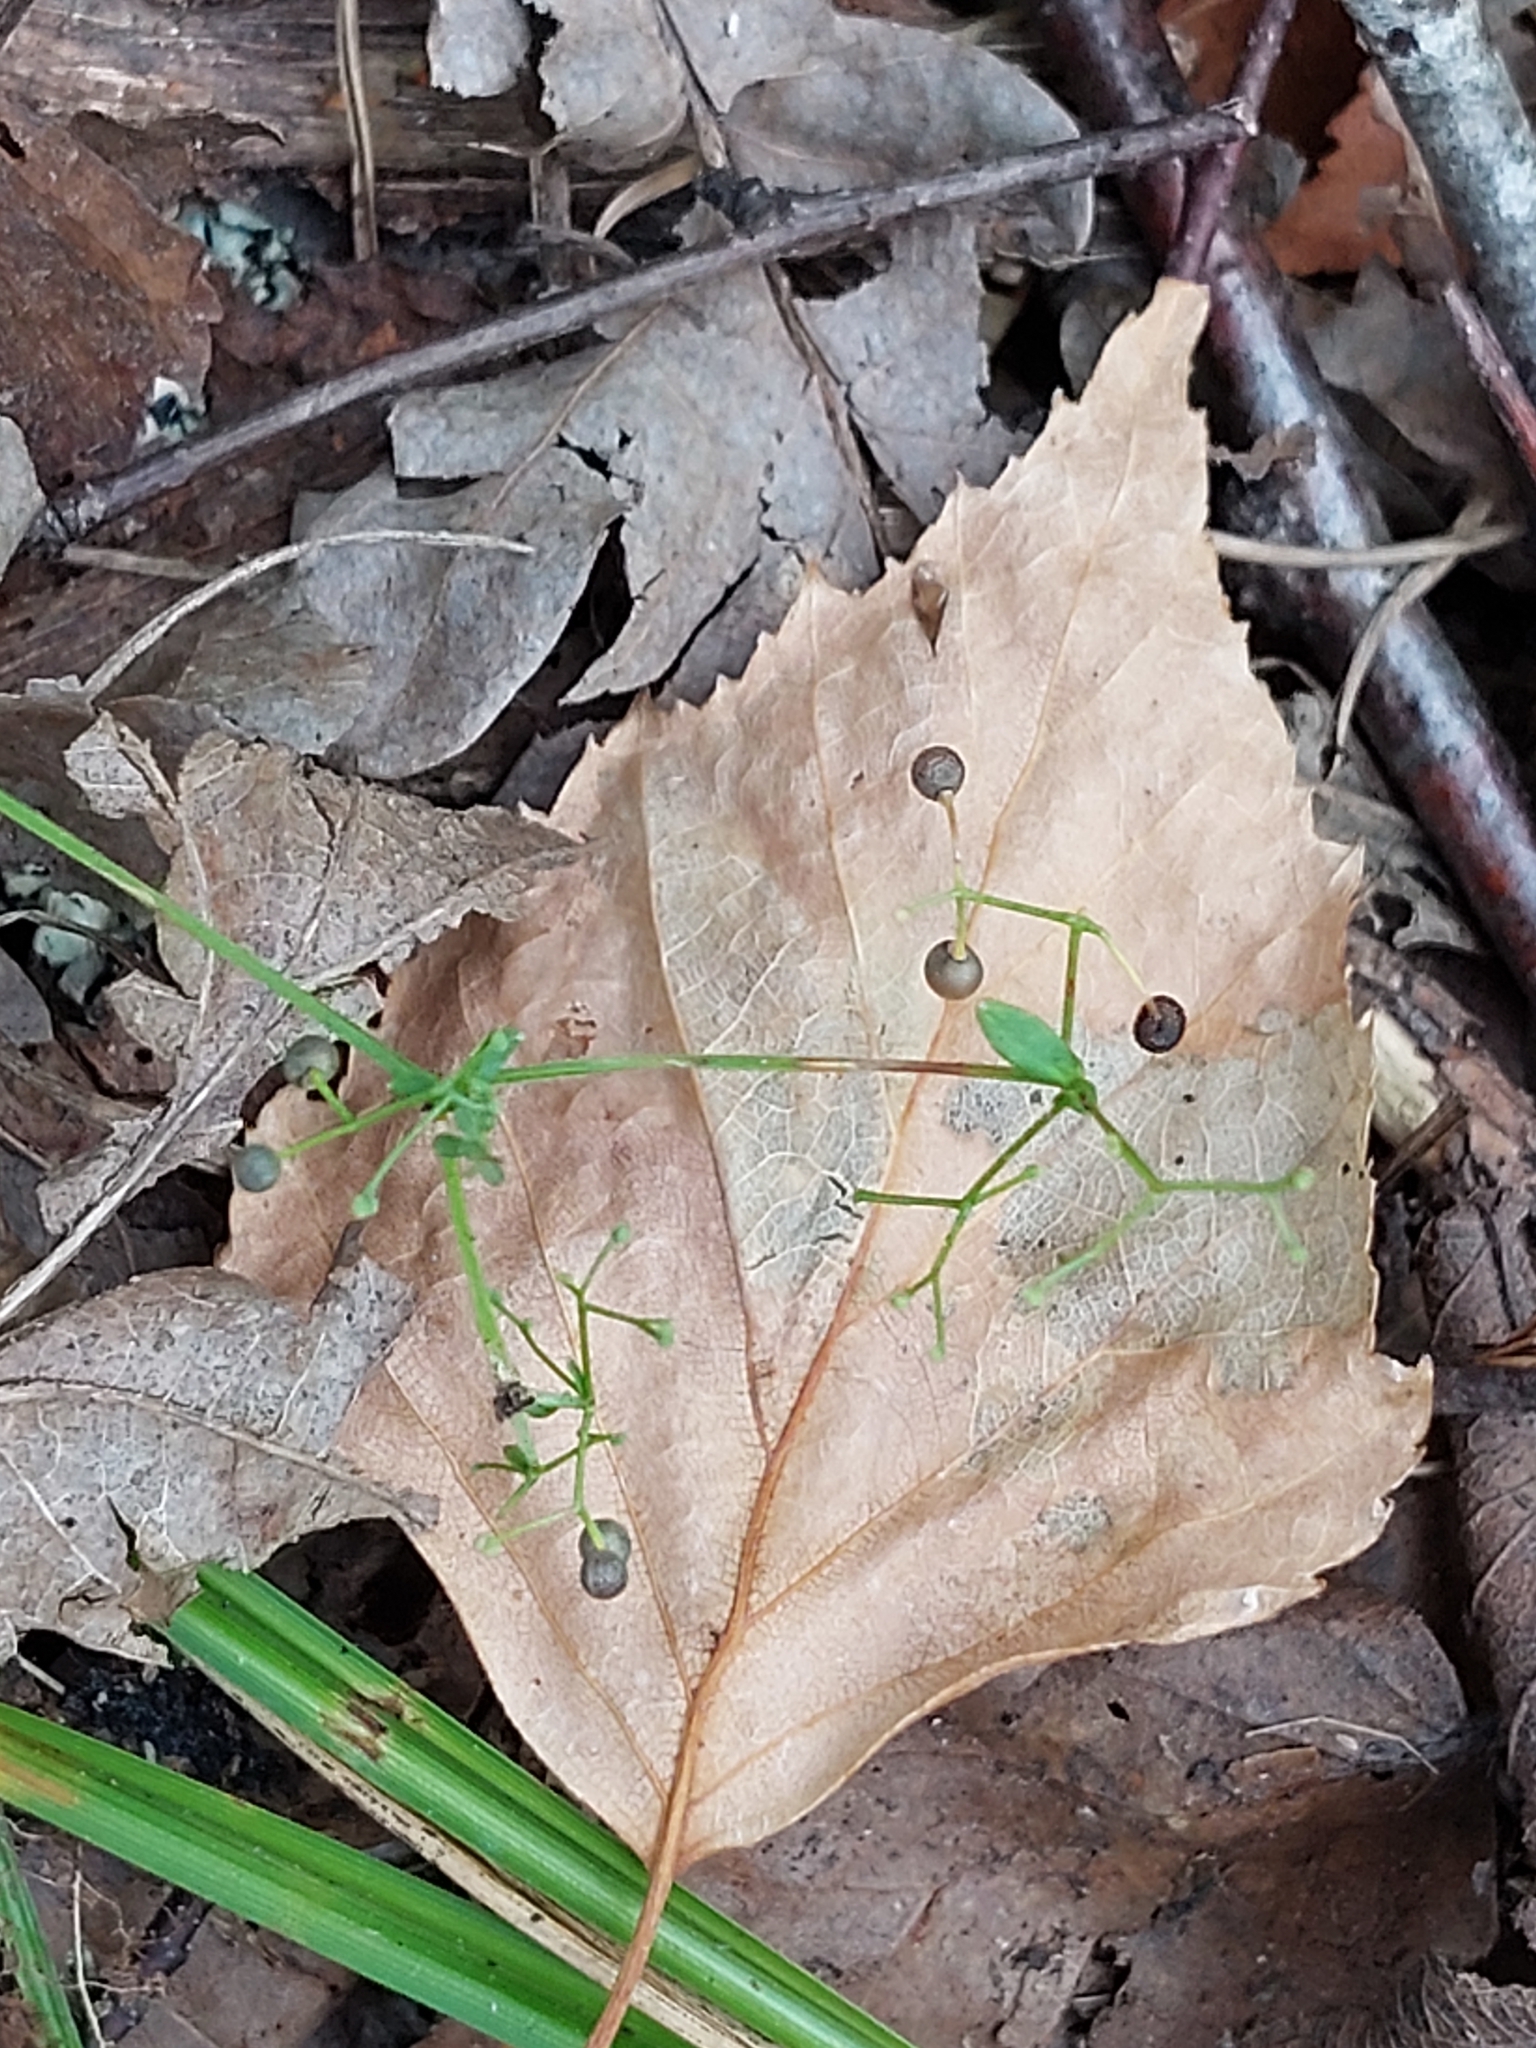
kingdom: Plantae
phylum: Tracheophyta
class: Magnoliopsida
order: Gentianales
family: Rubiaceae
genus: Galium
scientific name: Galium palustre
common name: Common marsh-bedstraw
